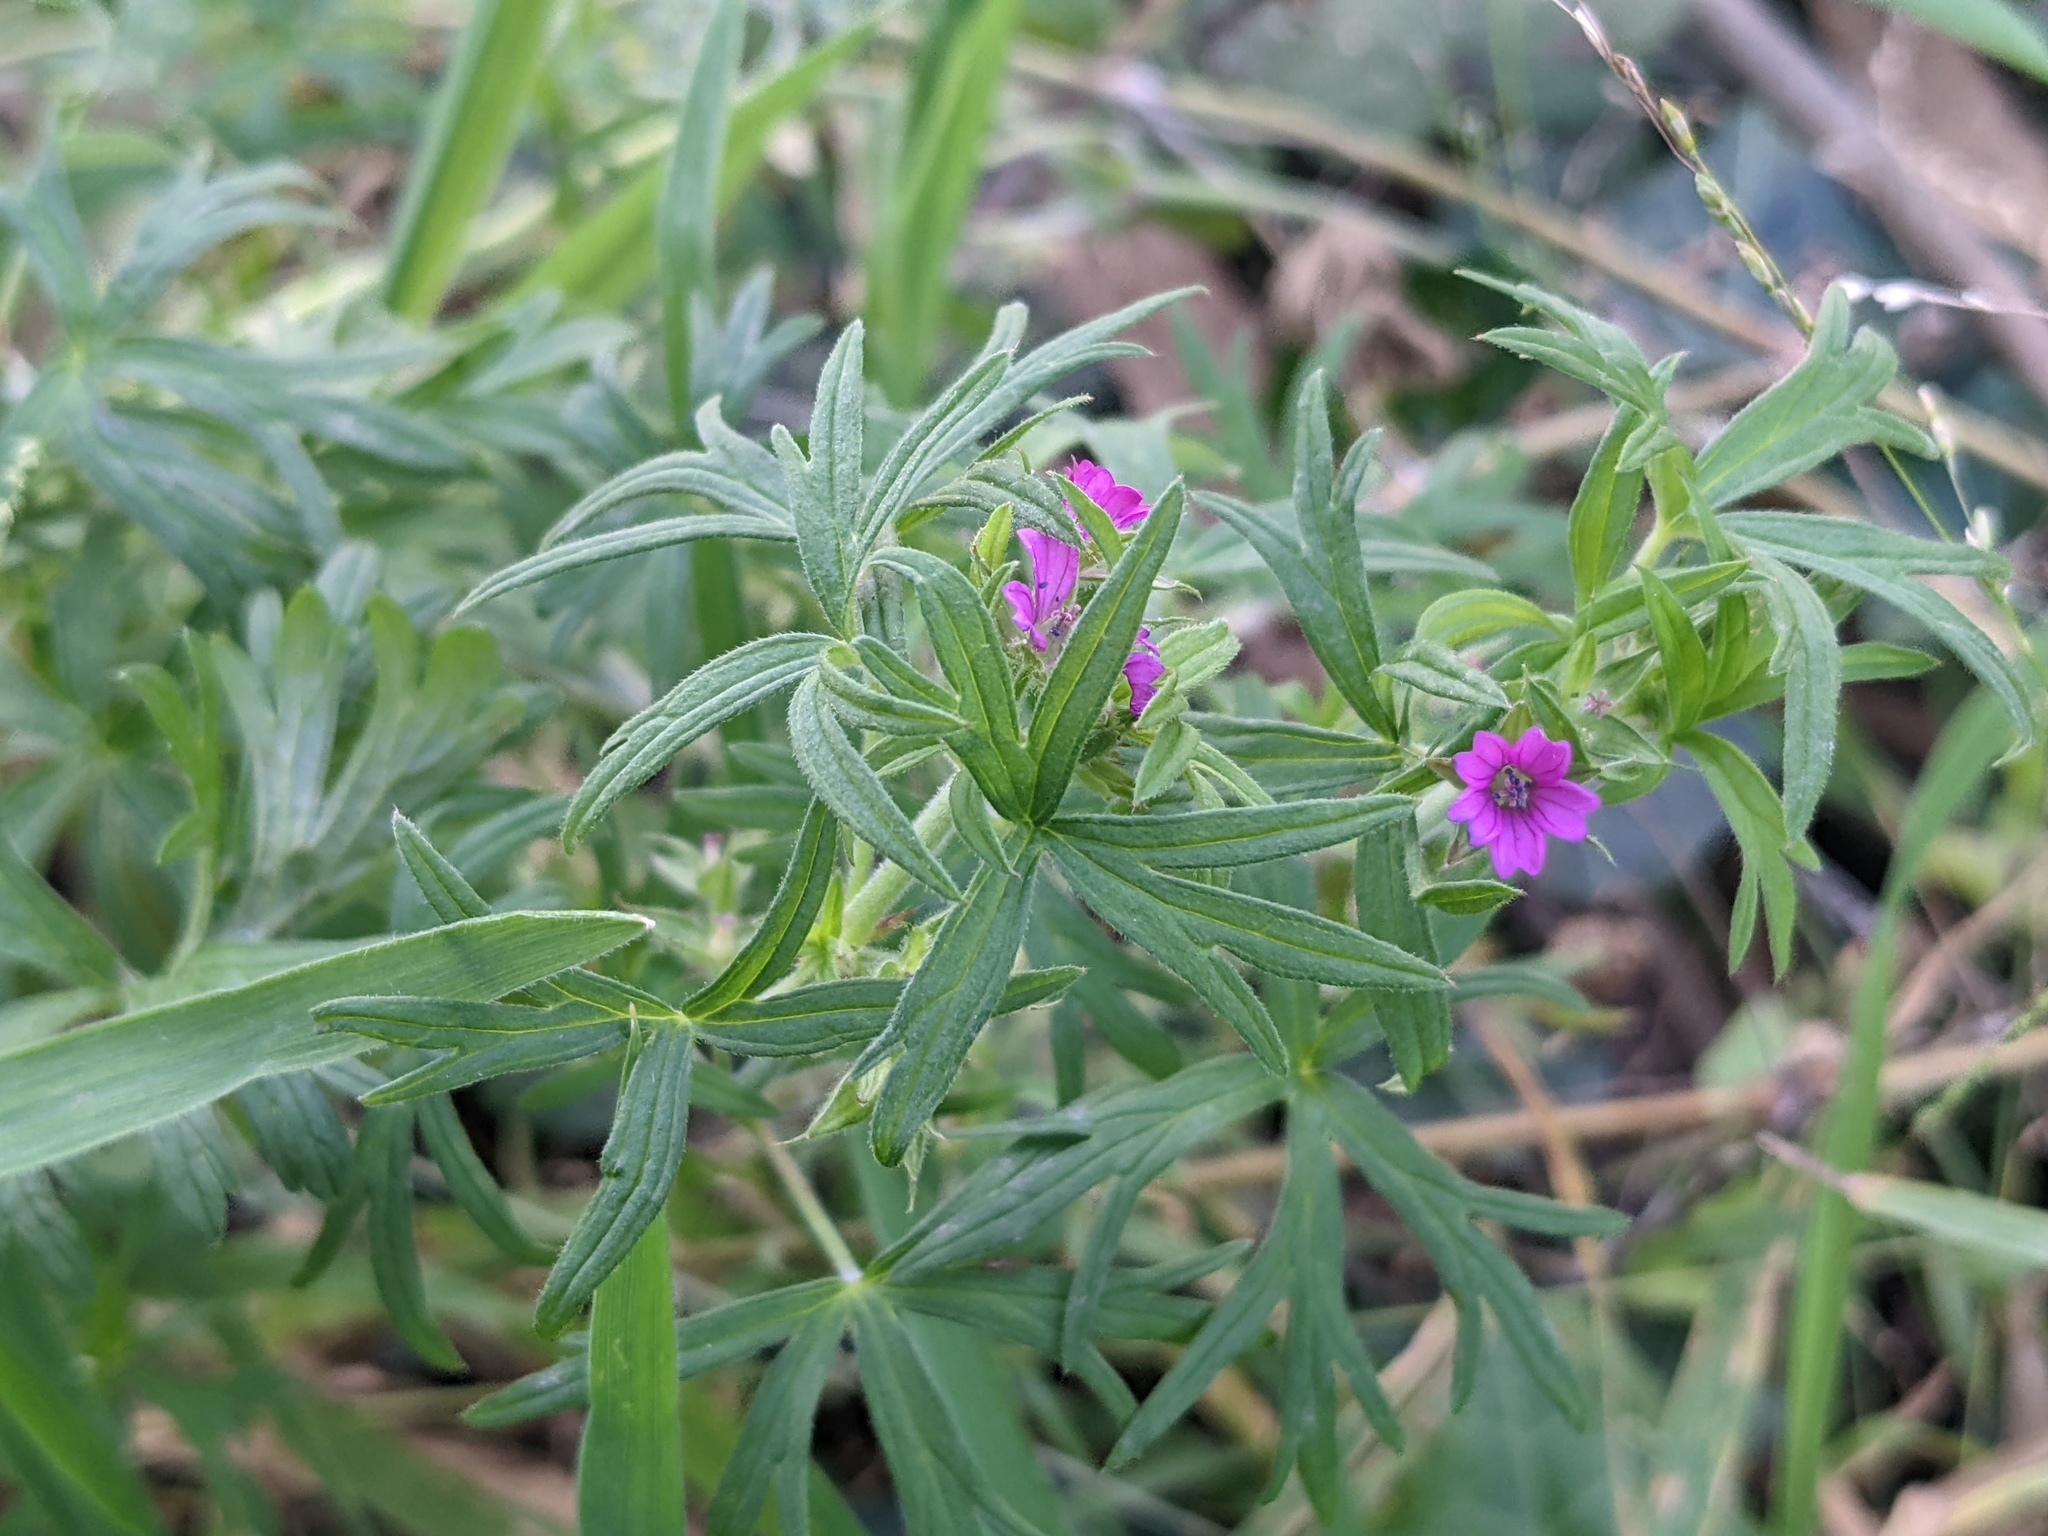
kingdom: Plantae
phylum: Tracheophyta
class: Magnoliopsida
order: Geraniales
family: Geraniaceae
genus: Geranium
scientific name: Geranium dissectum
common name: Cut-leaved crane's-bill
